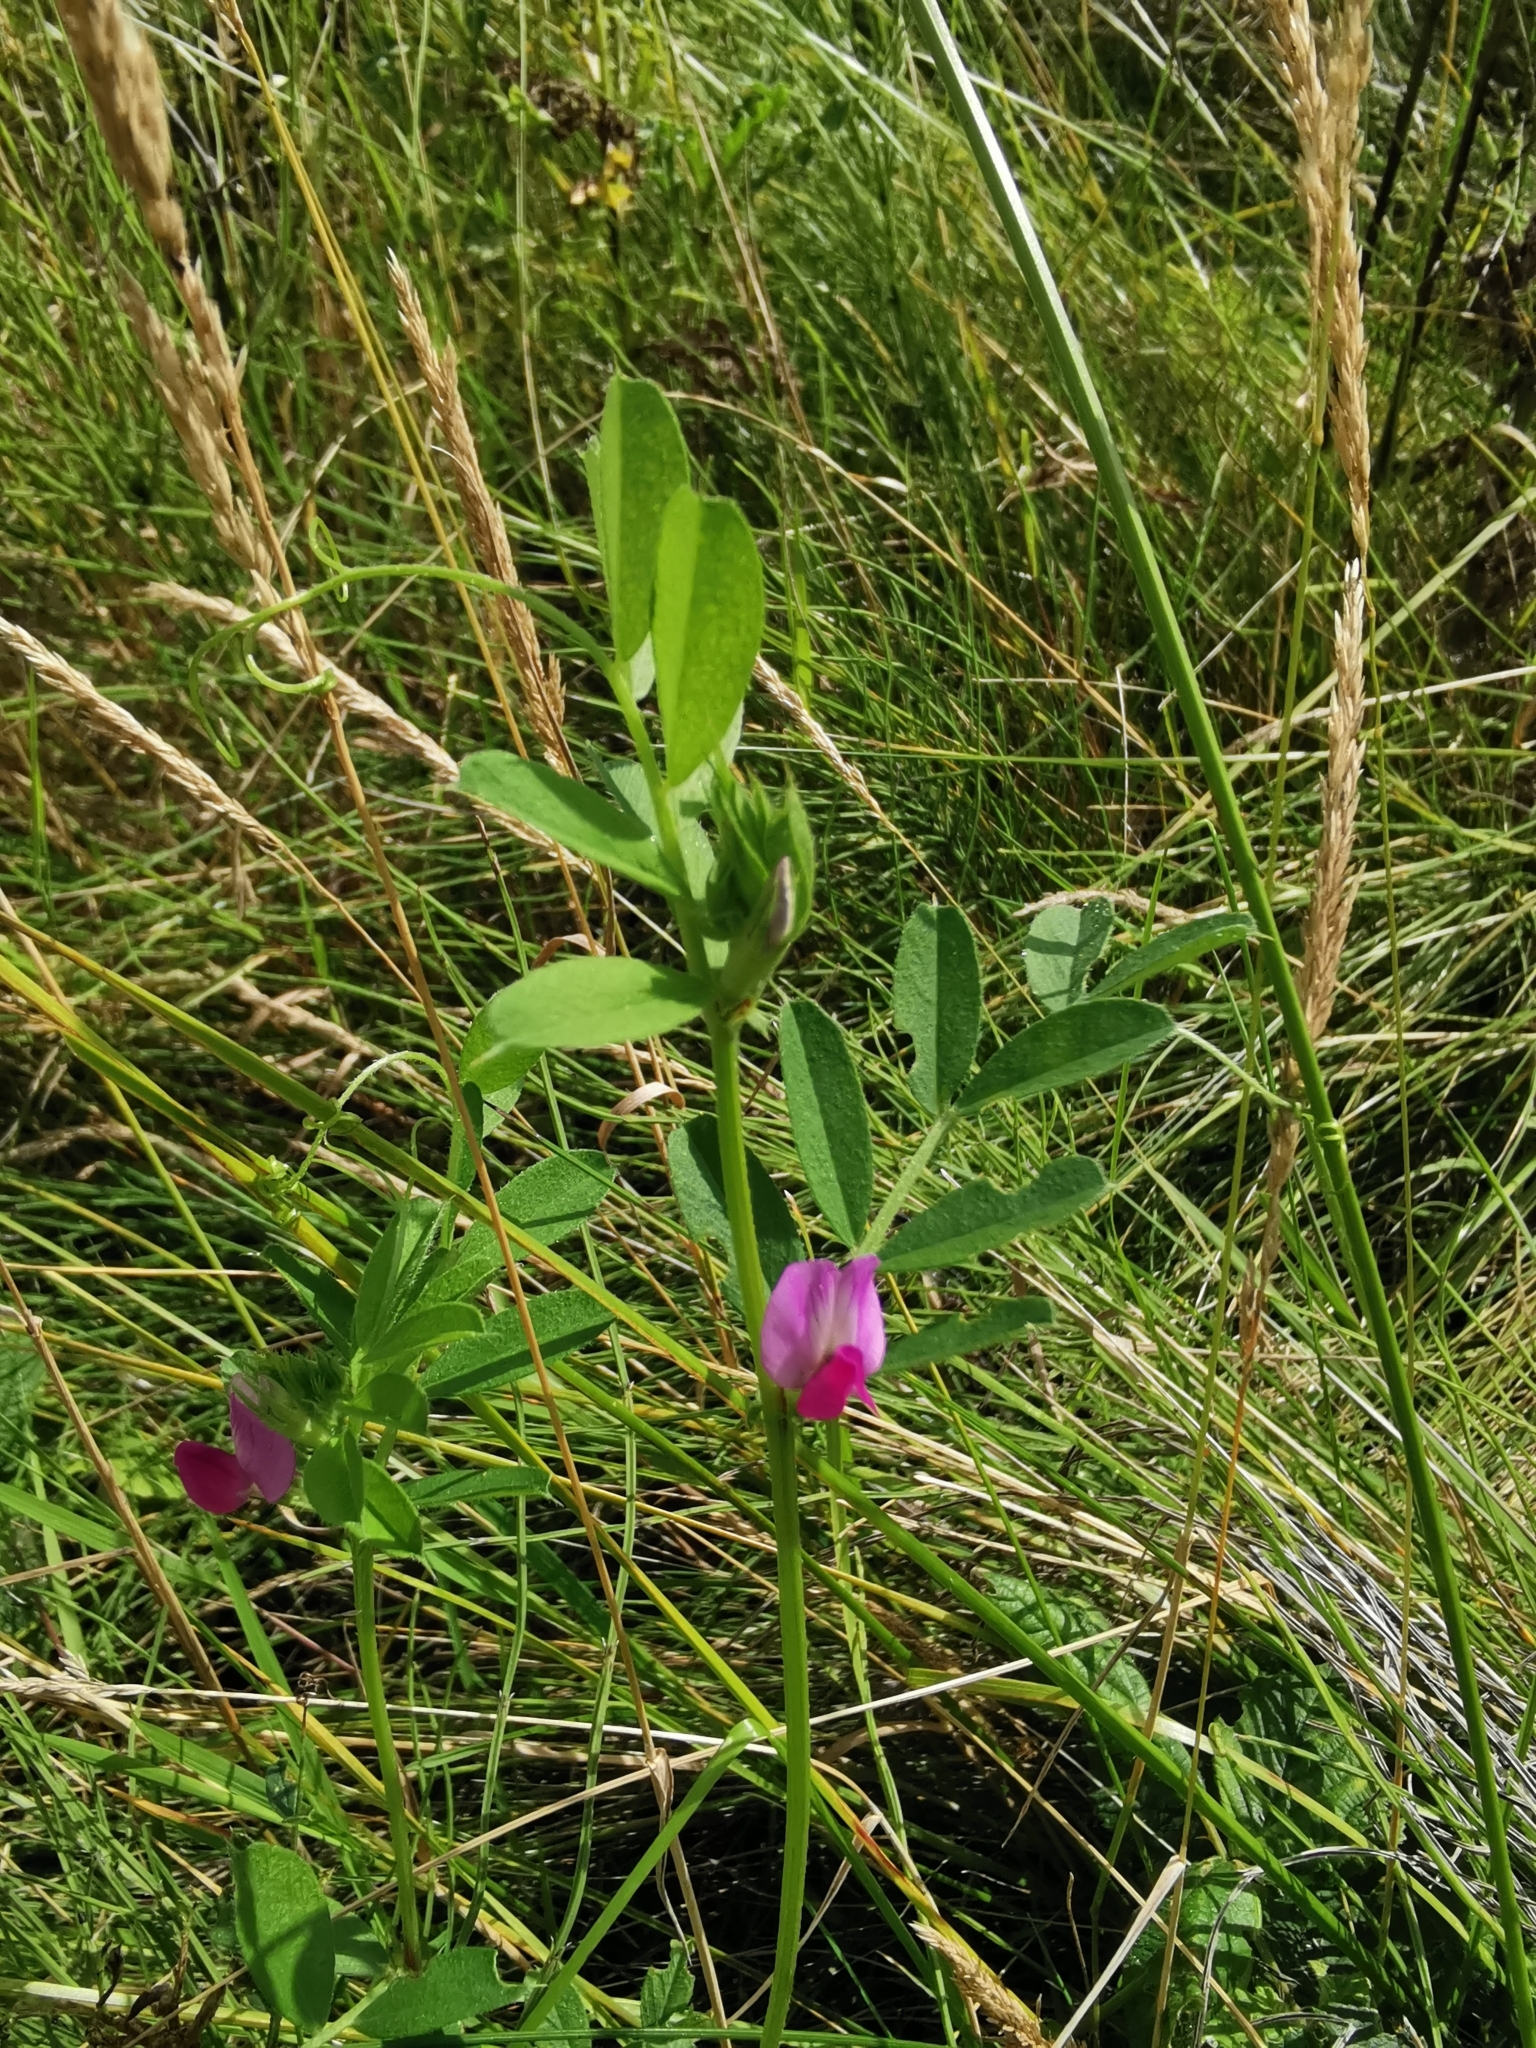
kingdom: Plantae
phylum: Tracheophyta
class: Magnoliopsida
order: Fabales
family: Fabaceae
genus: Vicia
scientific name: Vicia sativa
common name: Garden vetch
